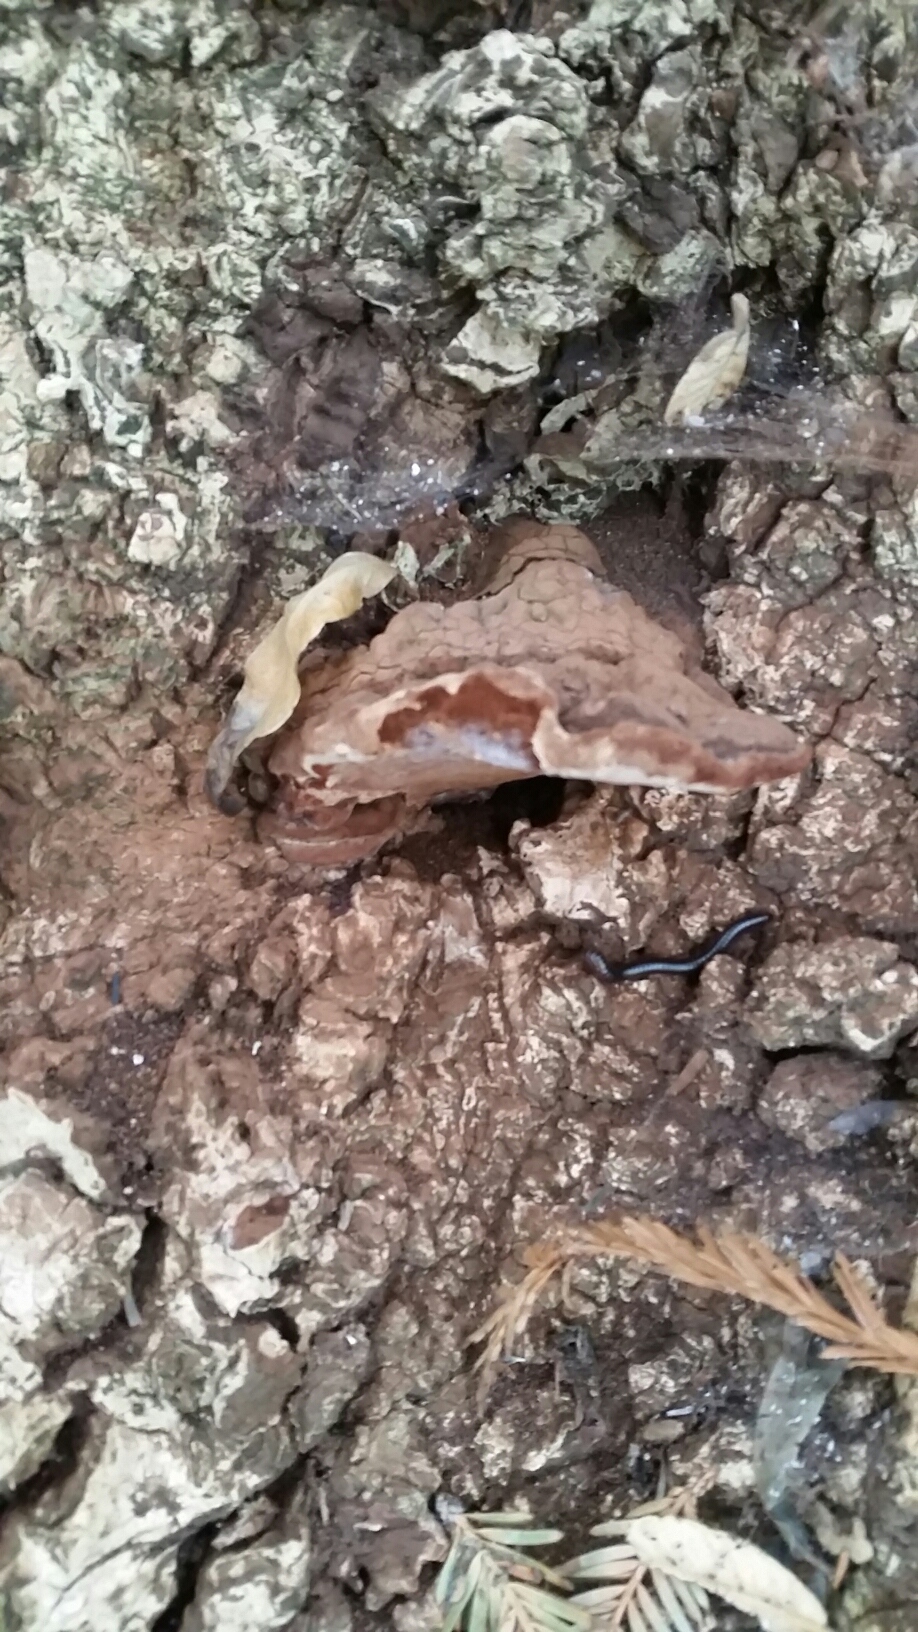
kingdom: Fungi
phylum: Basidiomycota
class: Agaricomycetes
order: Polyporales
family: Polyporaceae
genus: Ganoderma
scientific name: Ganoderma brownii
